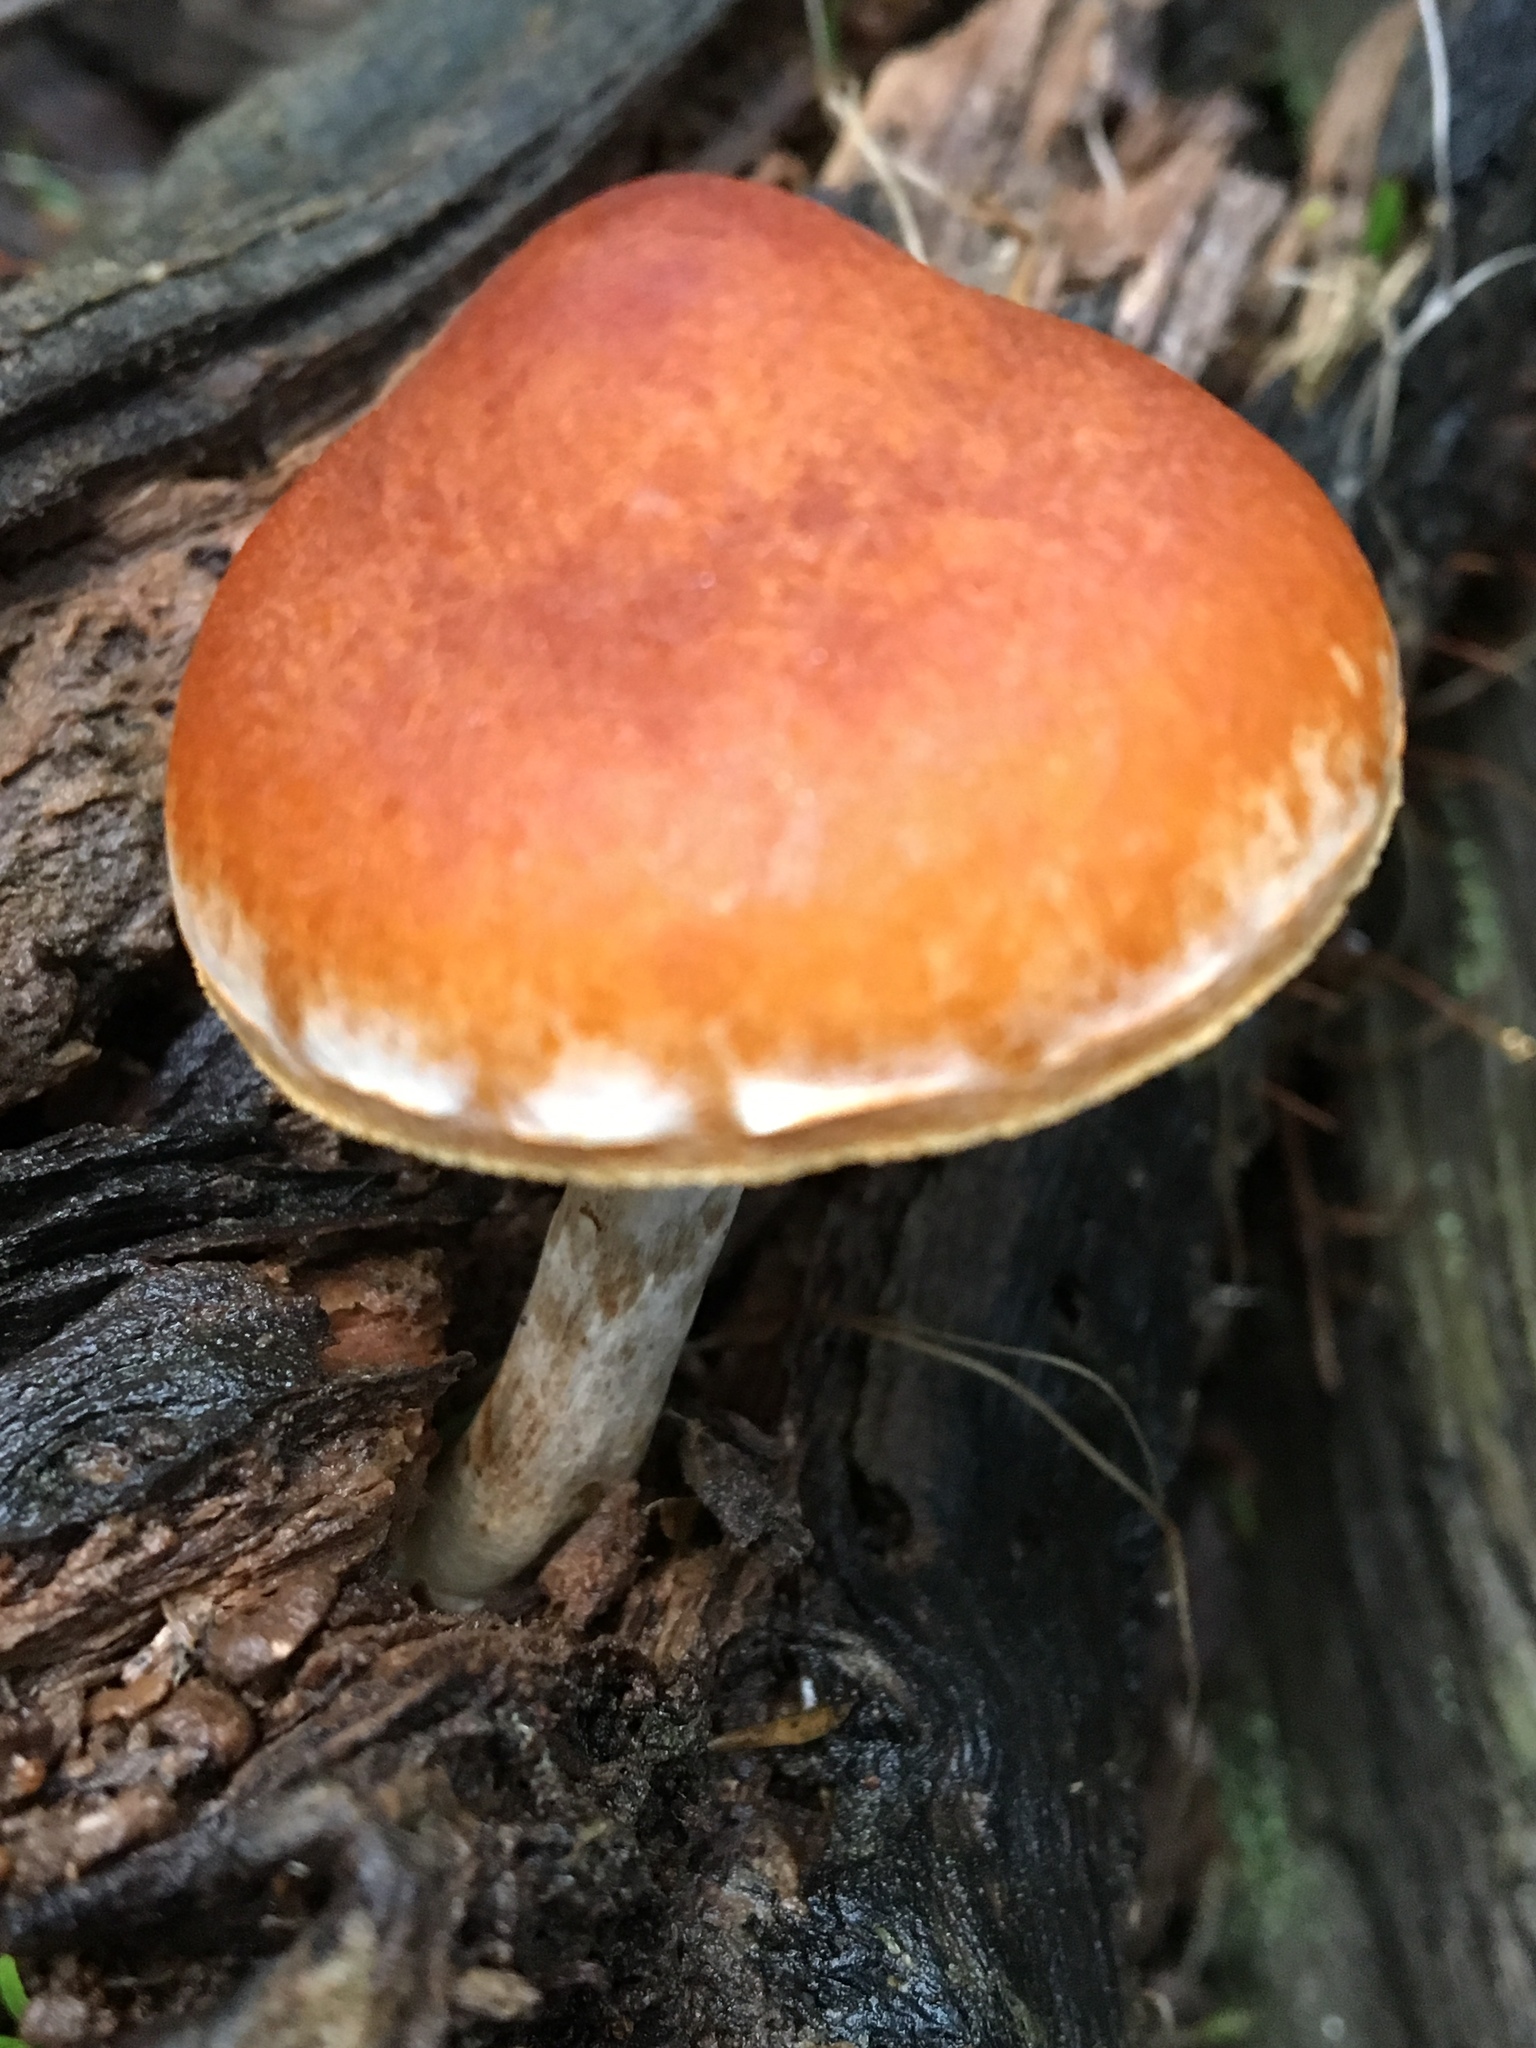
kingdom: Fungi
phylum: Basidiomycota
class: Agaricomycetes
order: Agaricales
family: Hymenogastraceae
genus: Gymnopilus
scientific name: Gymnopilus allantopus
